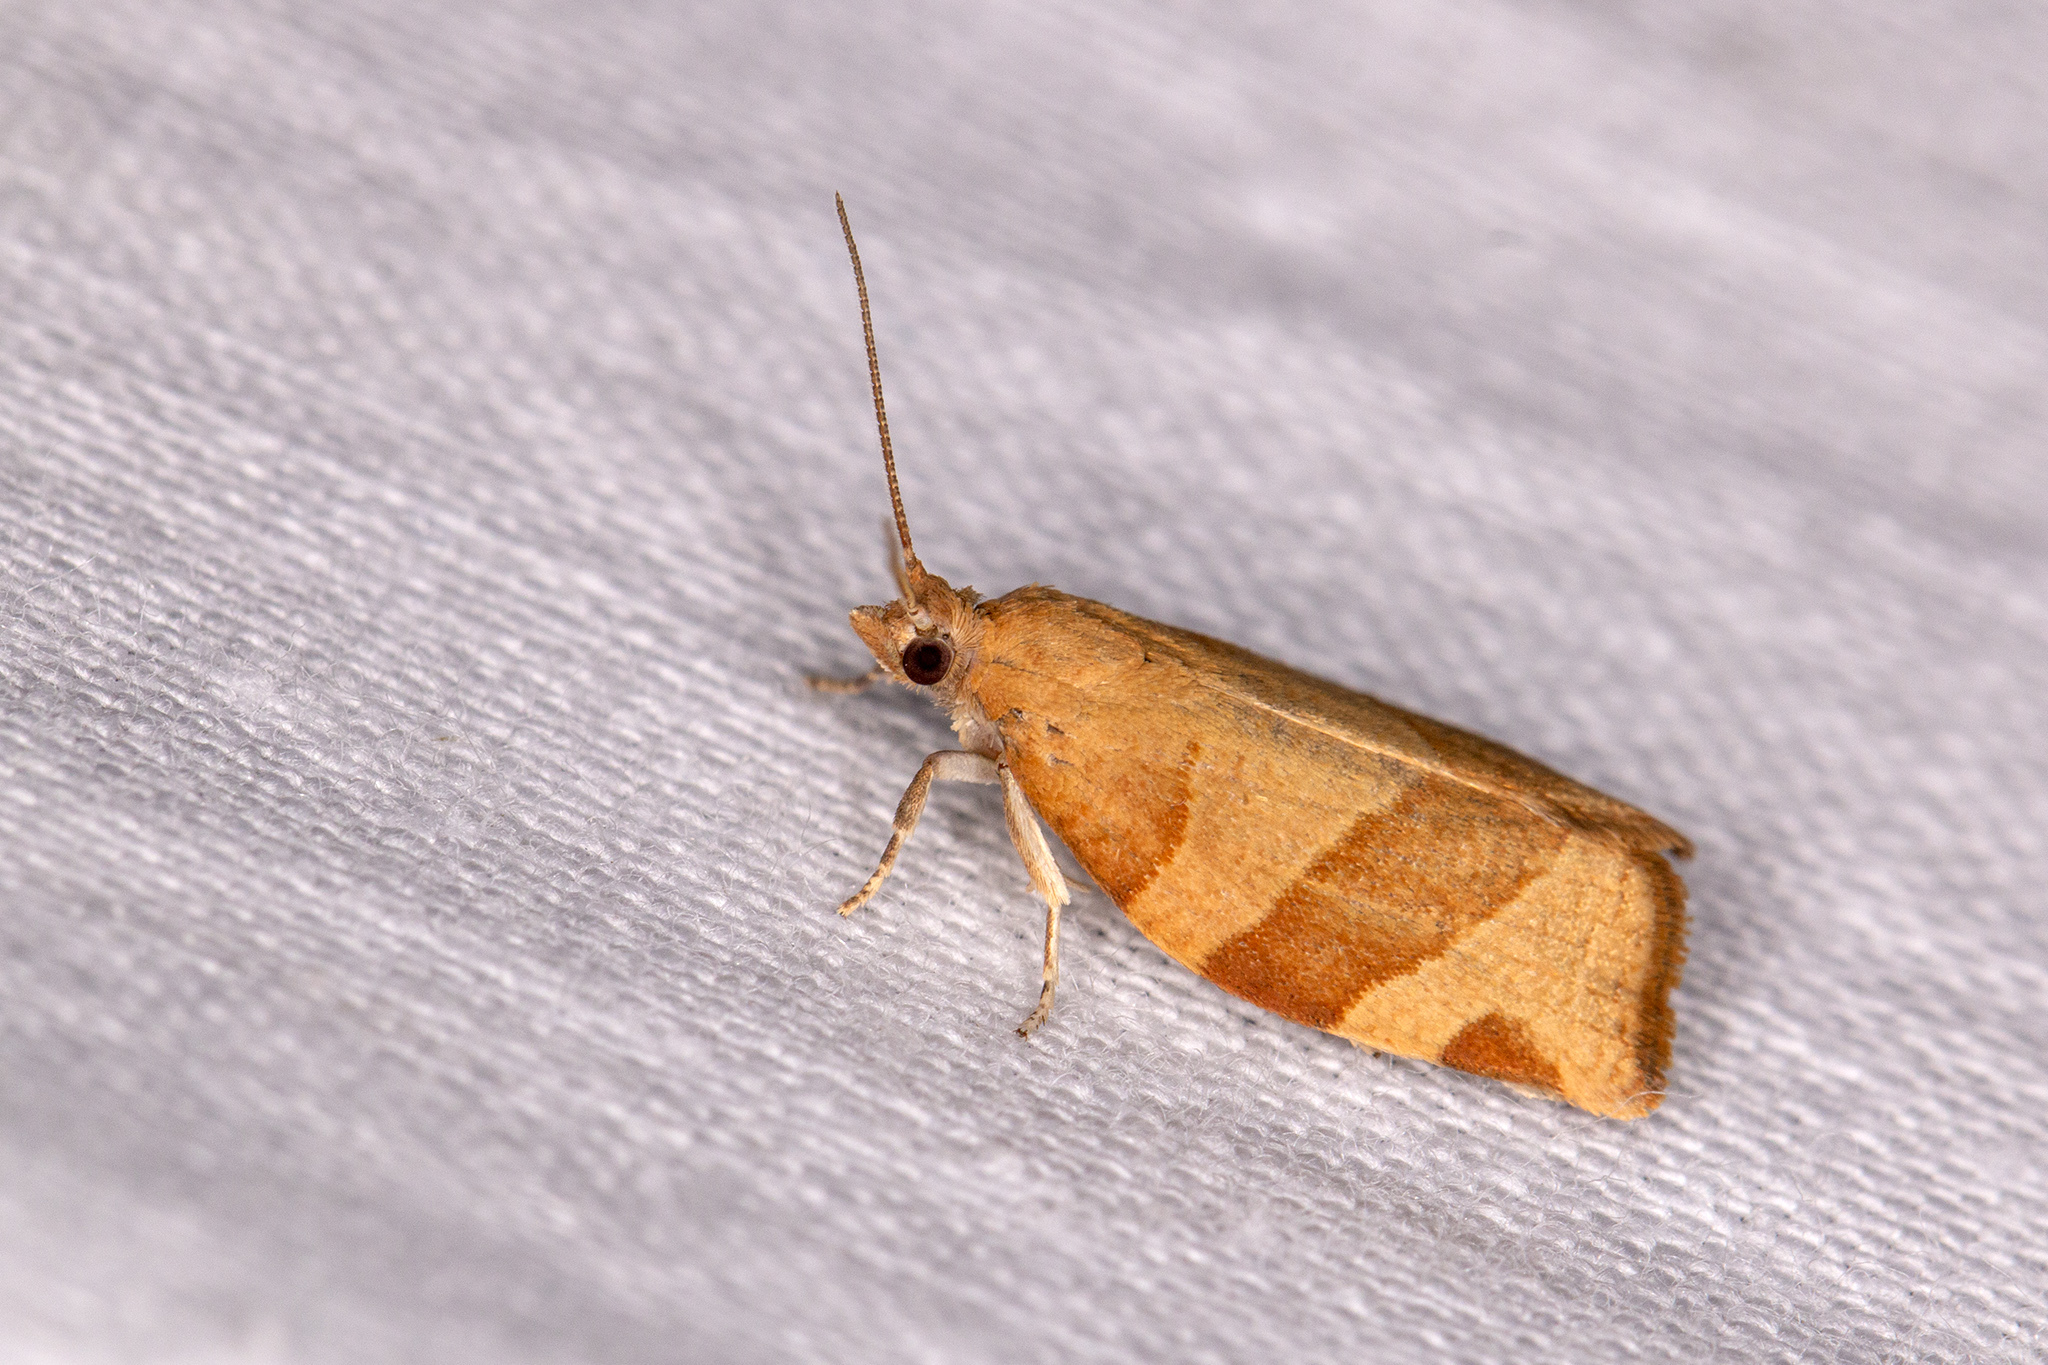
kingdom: Animalia
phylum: Arthropoda
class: Insecta
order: Lepidoptera
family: Tortricidae
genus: Pandemis
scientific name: Pandemis cerasana
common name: Barred fruit-tree tortrix
